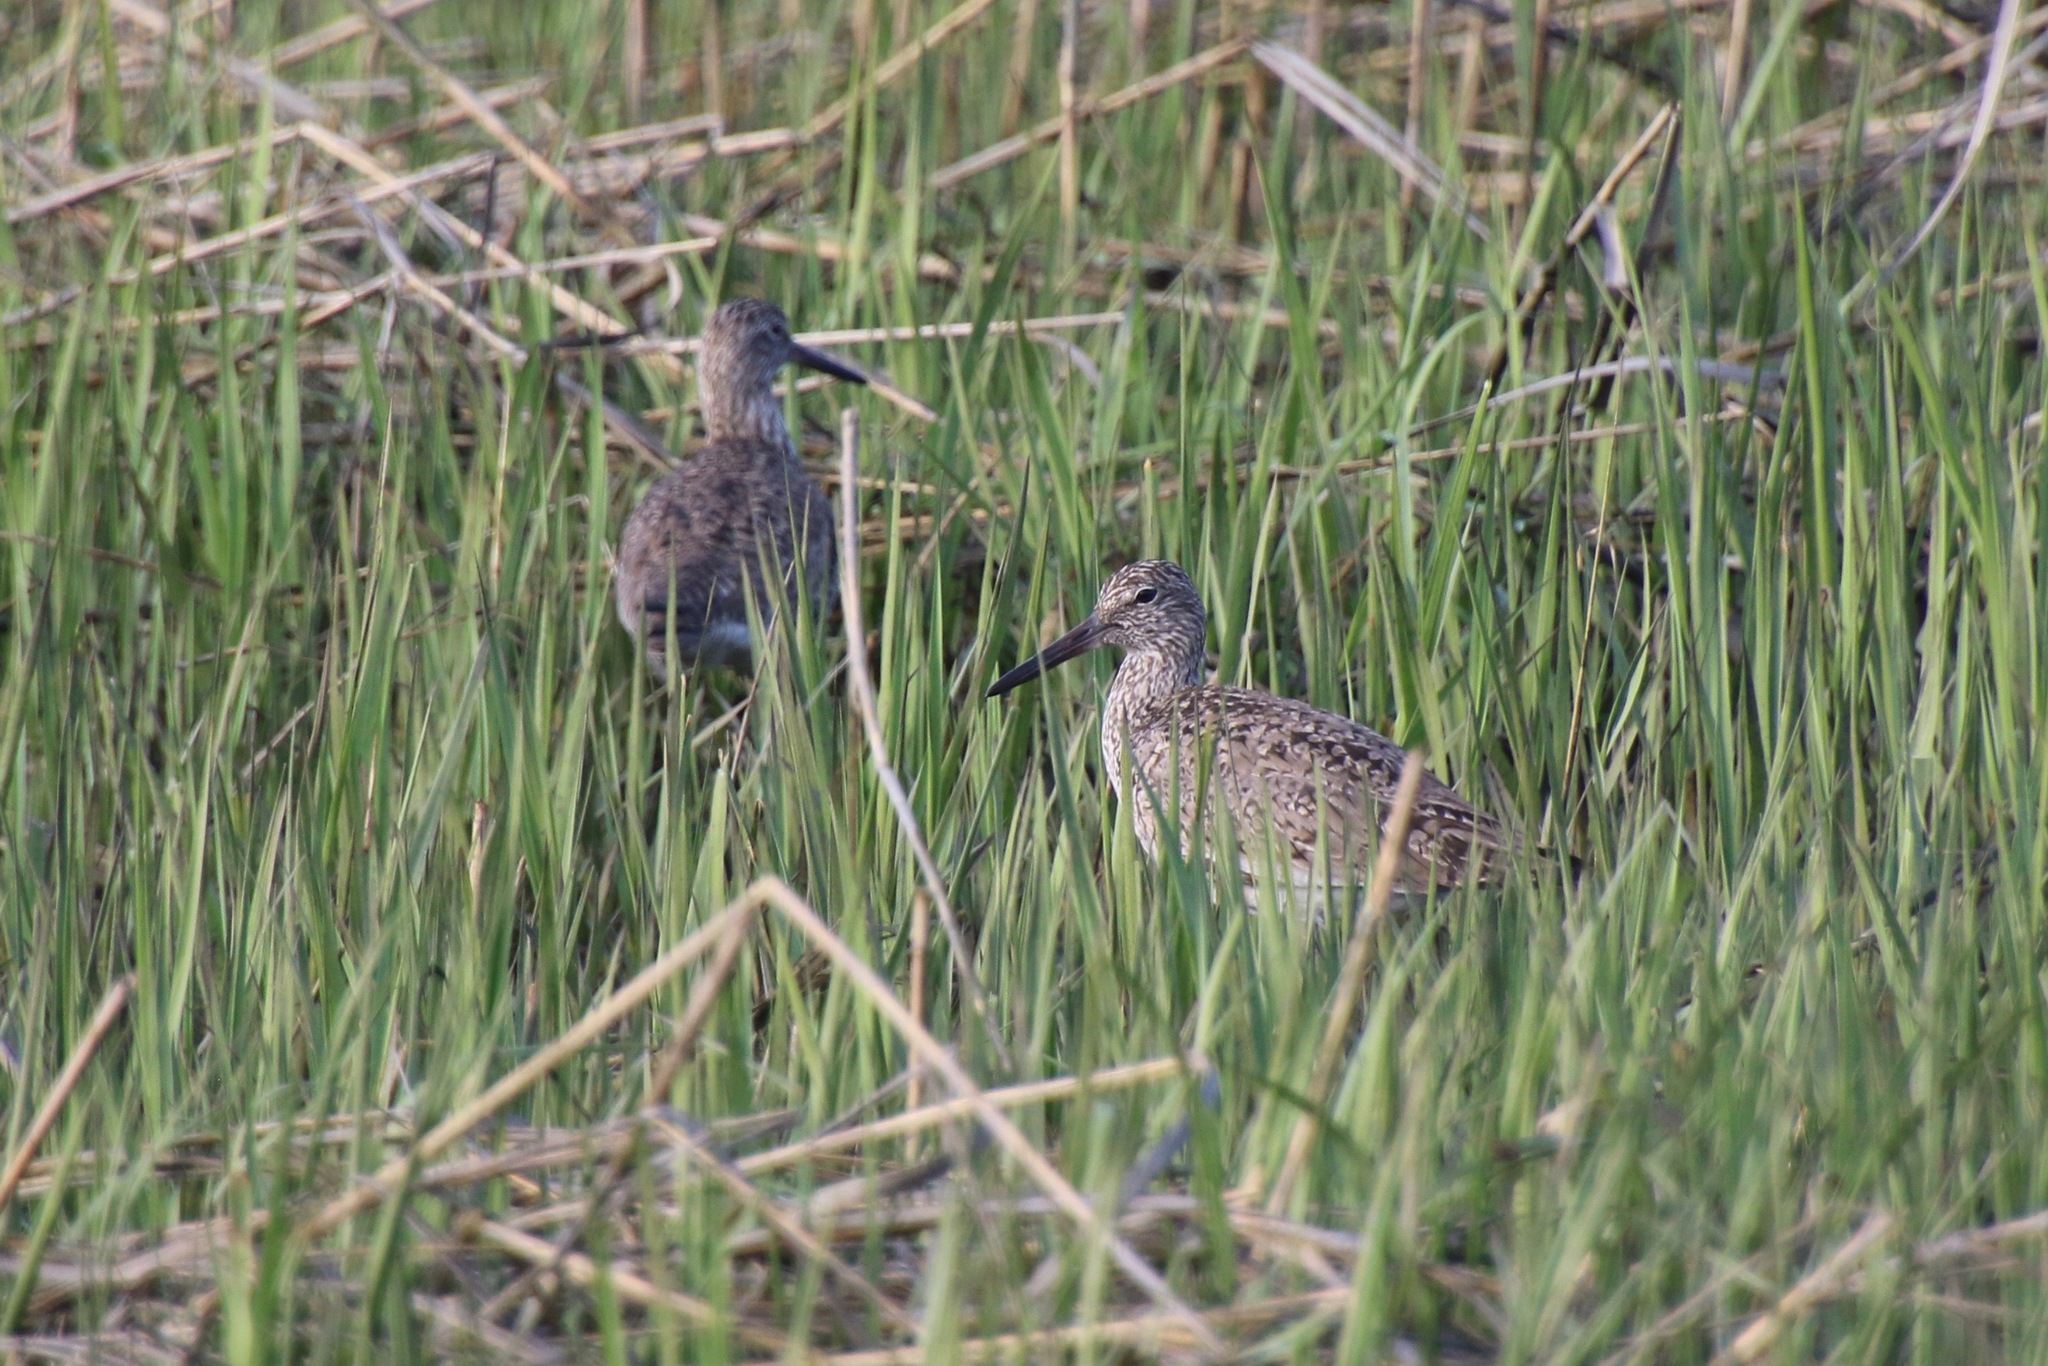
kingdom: Animalia
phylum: Chordata
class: Aves
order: Charadriiformes
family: Scolopacidae
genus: Tringa
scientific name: Tringa semipalmata
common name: Willet
